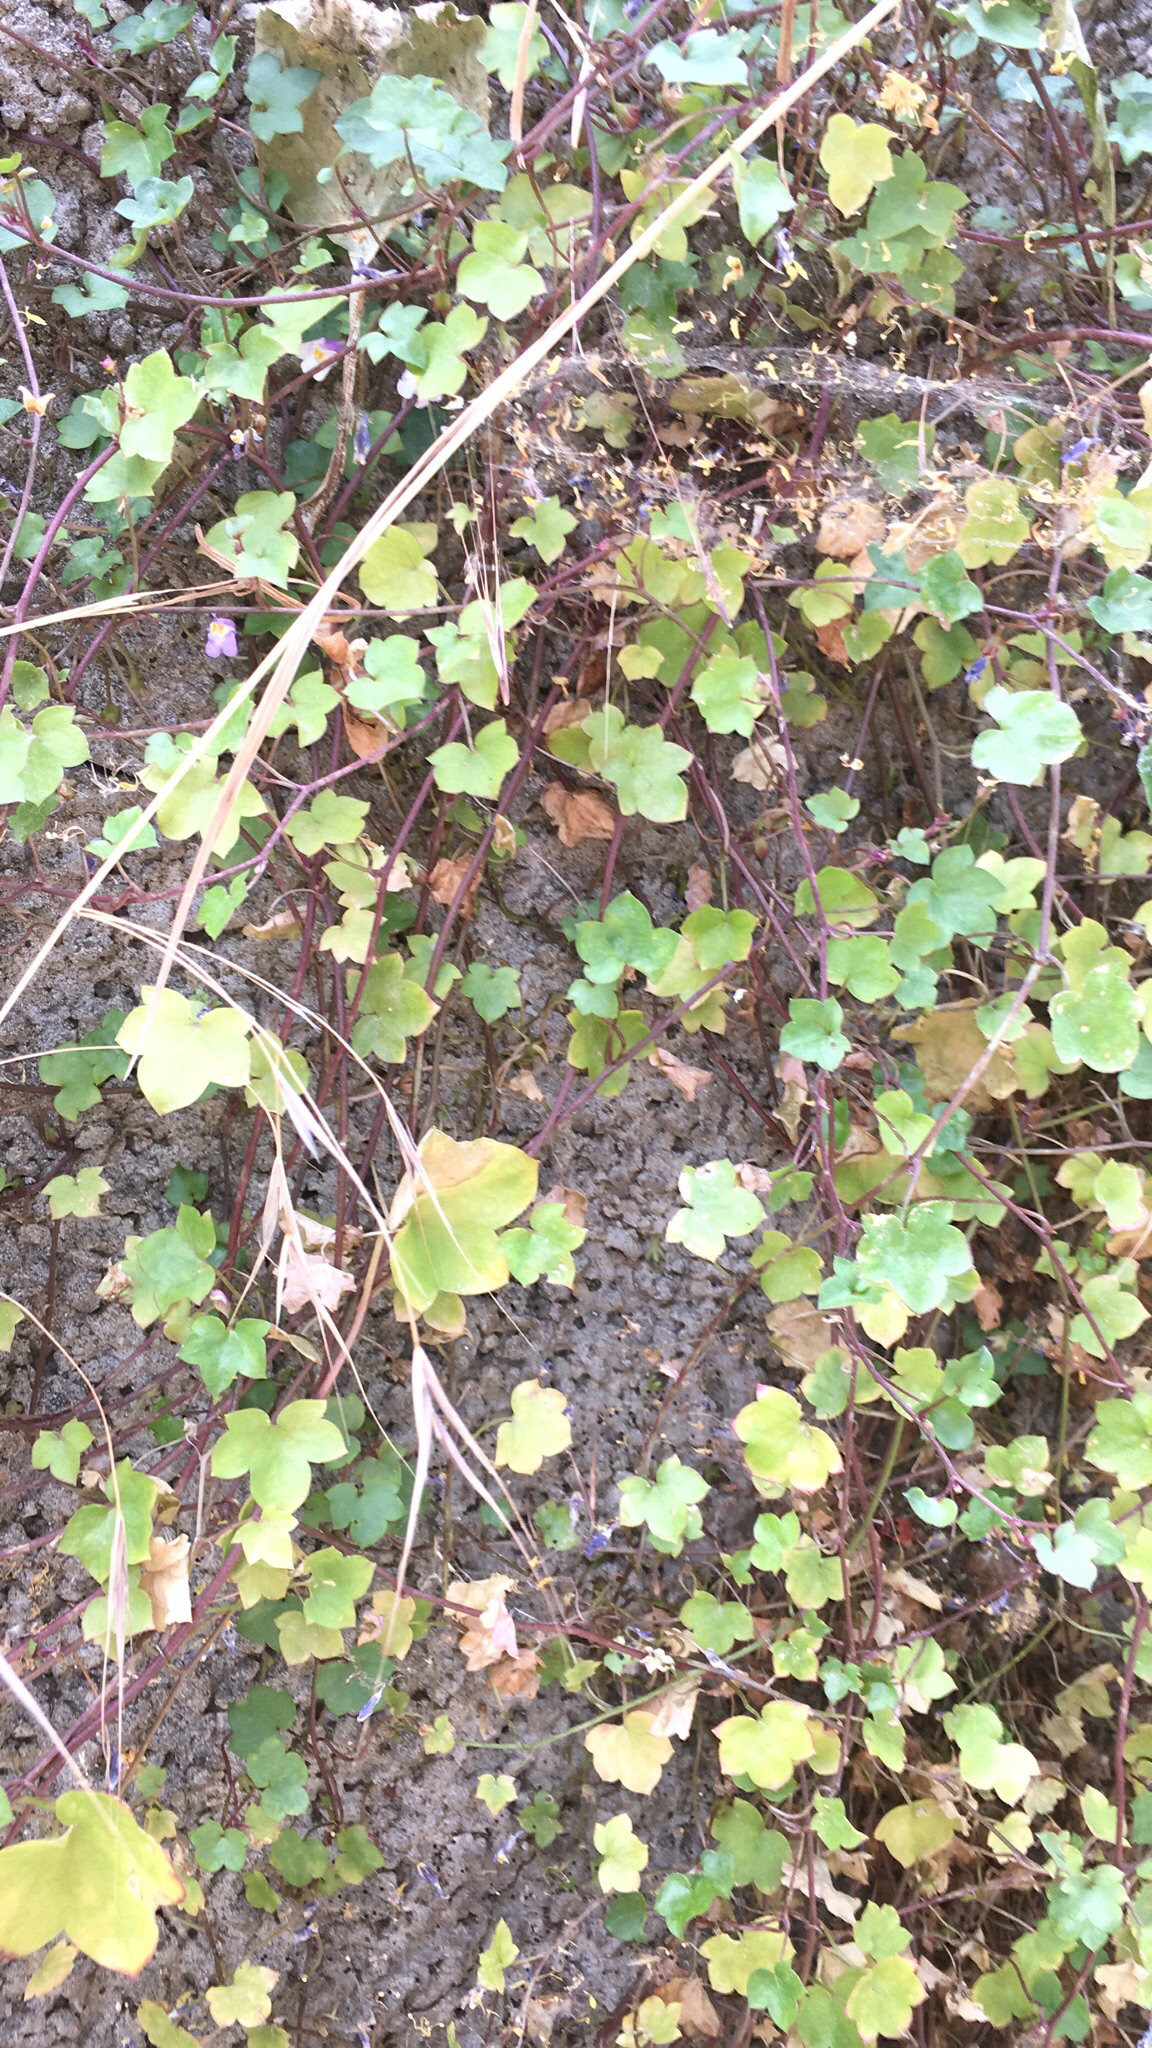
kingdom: Plantae
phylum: Tracheophyta
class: Magnoliopsida
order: Lamiales
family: Plantaginaceae
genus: Cymbalaria
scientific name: Cymbalaria muralis
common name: Ivy-leaved toadflax
